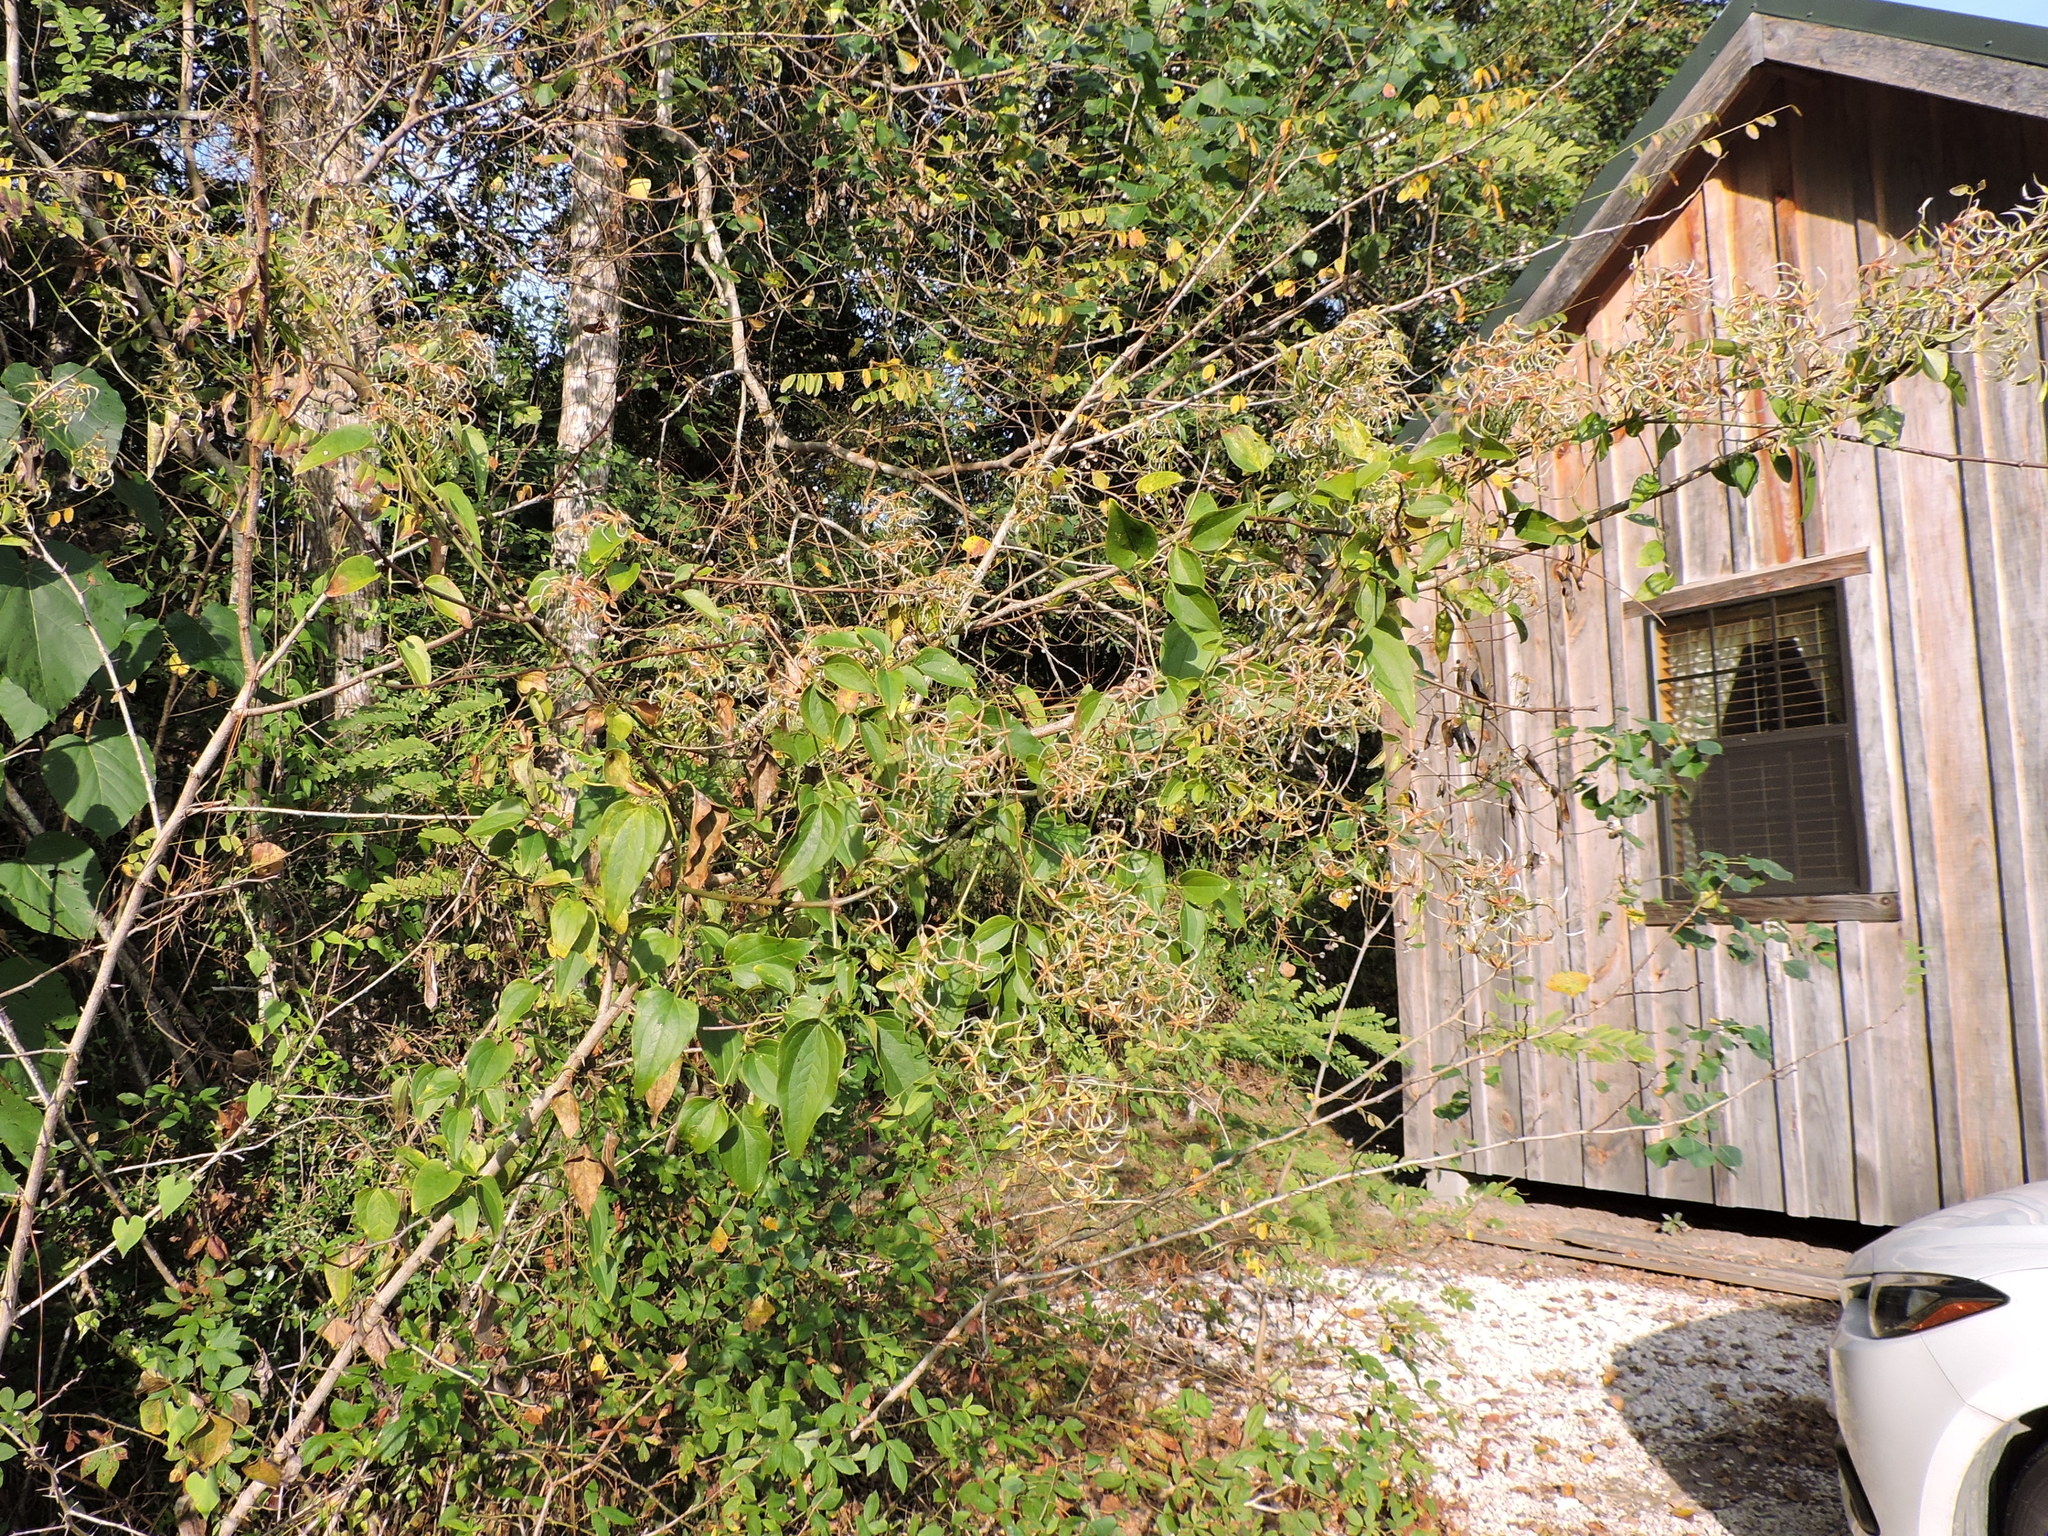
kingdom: Plantae
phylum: Tracheophyta
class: Magnoliopsida
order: Ranunculales
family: Ranunculaceae
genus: Clematis
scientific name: Clematis terniflora
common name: Sweet autumn clematis
